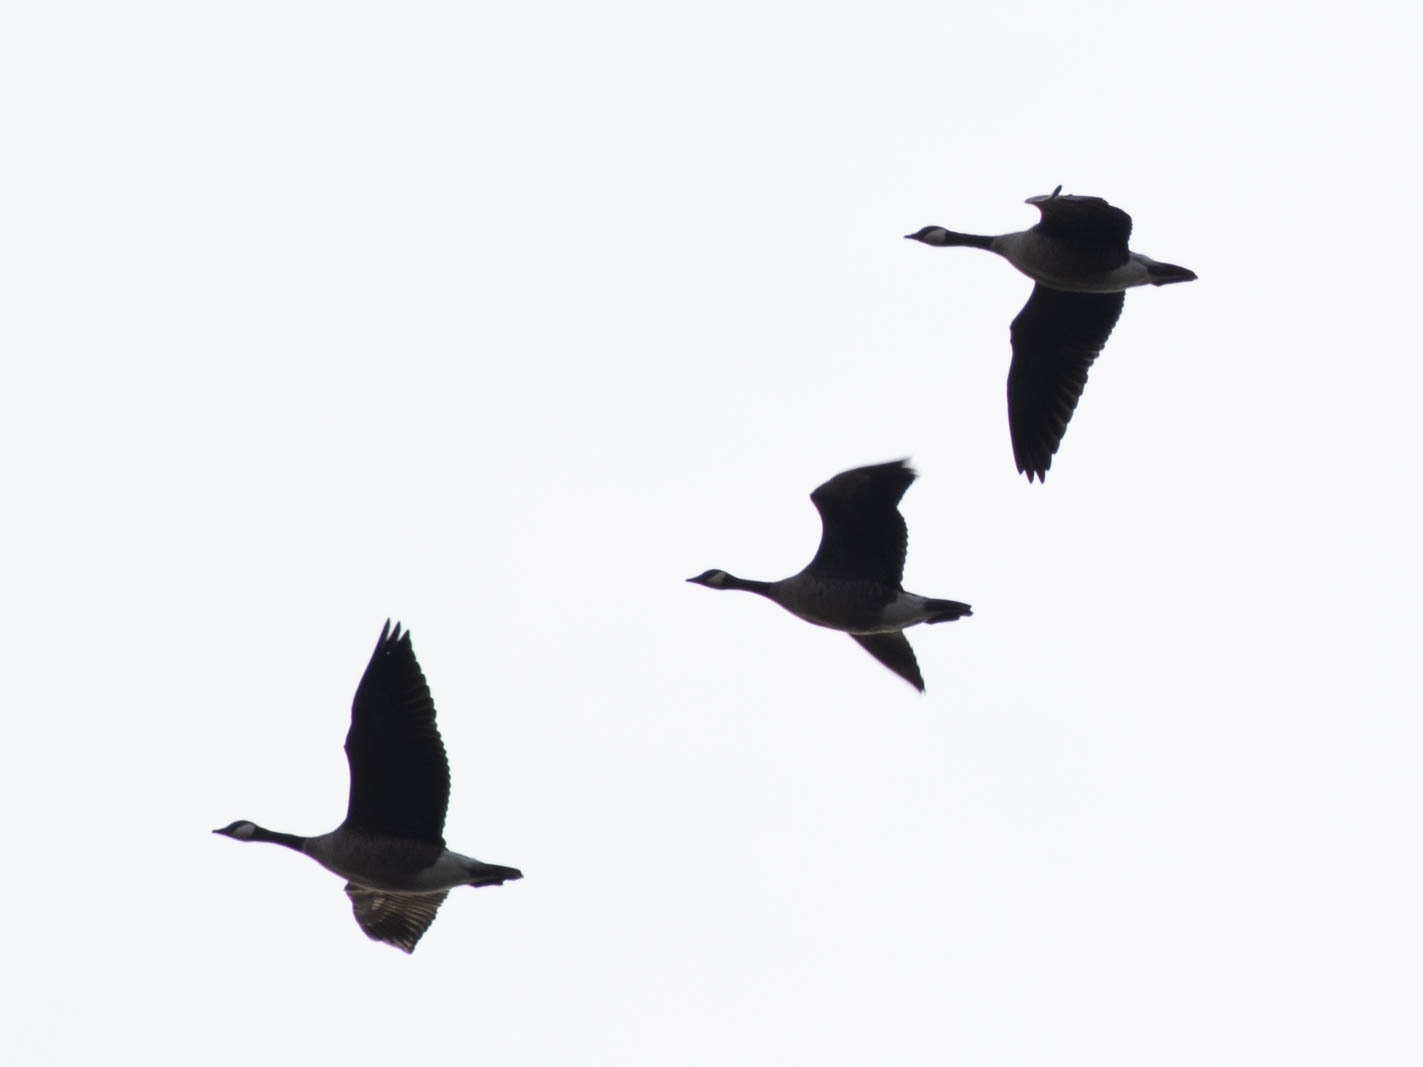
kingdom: Animalia
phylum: Chordata
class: Aves
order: Anseriformes
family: Anatidae
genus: Branta
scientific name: Branta canadensis
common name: Canada goose
